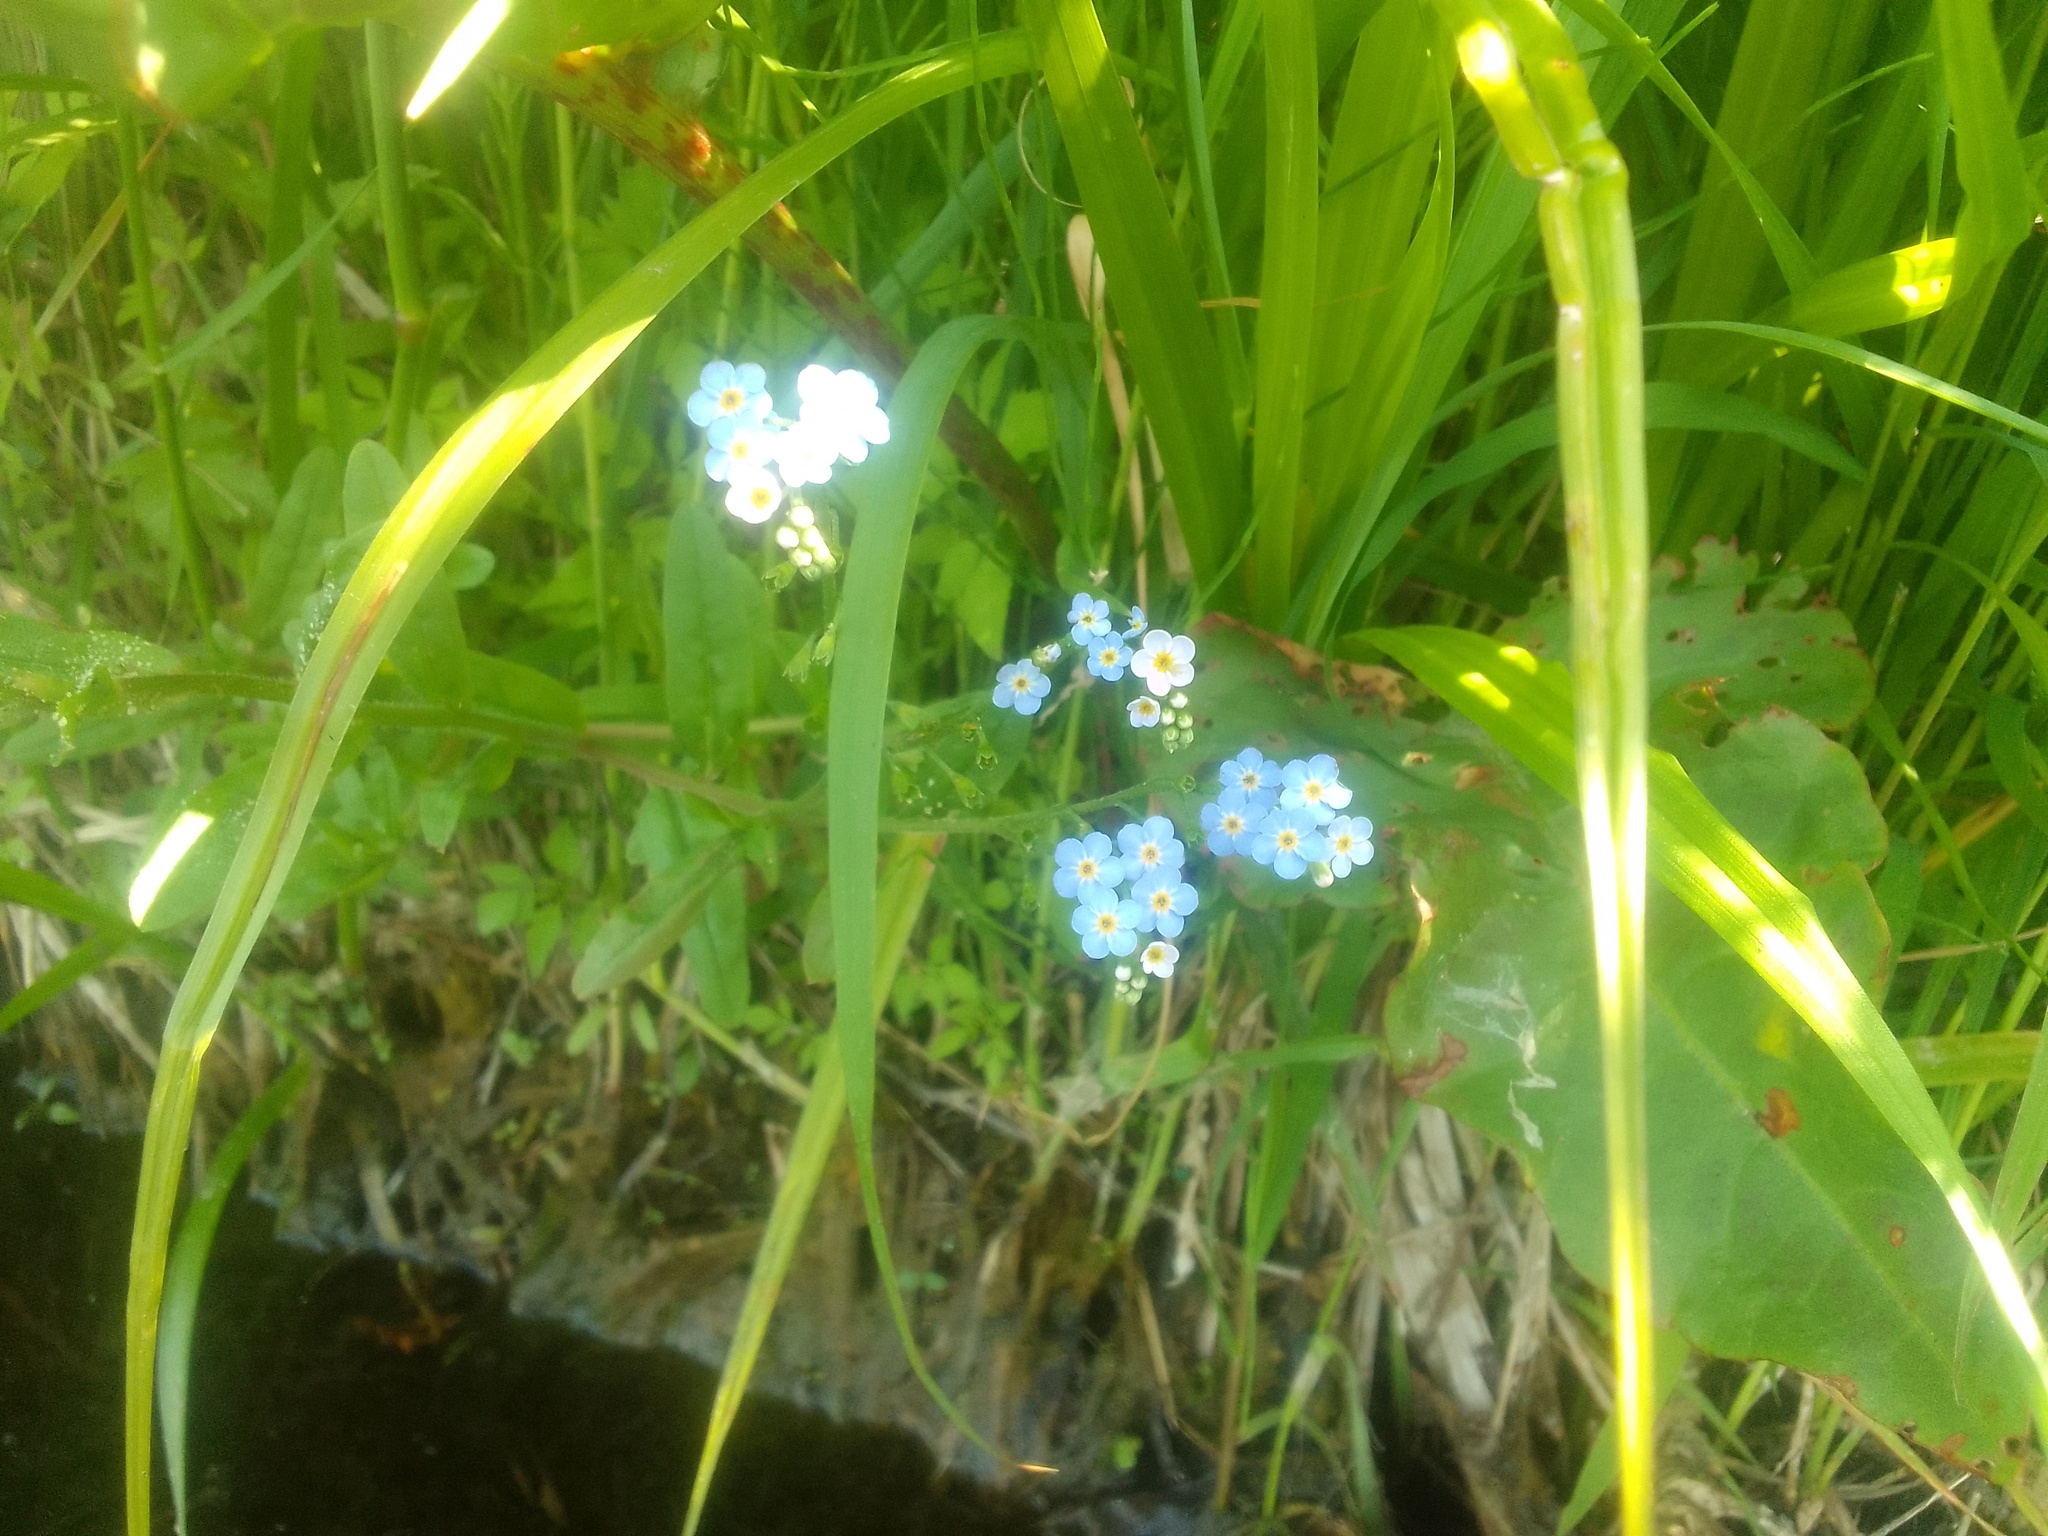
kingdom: Plantae
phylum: Tracheophyta
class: Magnoliopsida
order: Boraginales
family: Boraginaceae
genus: Myosotis
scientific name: Myosotis scorpioides
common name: Water forget-me-not
